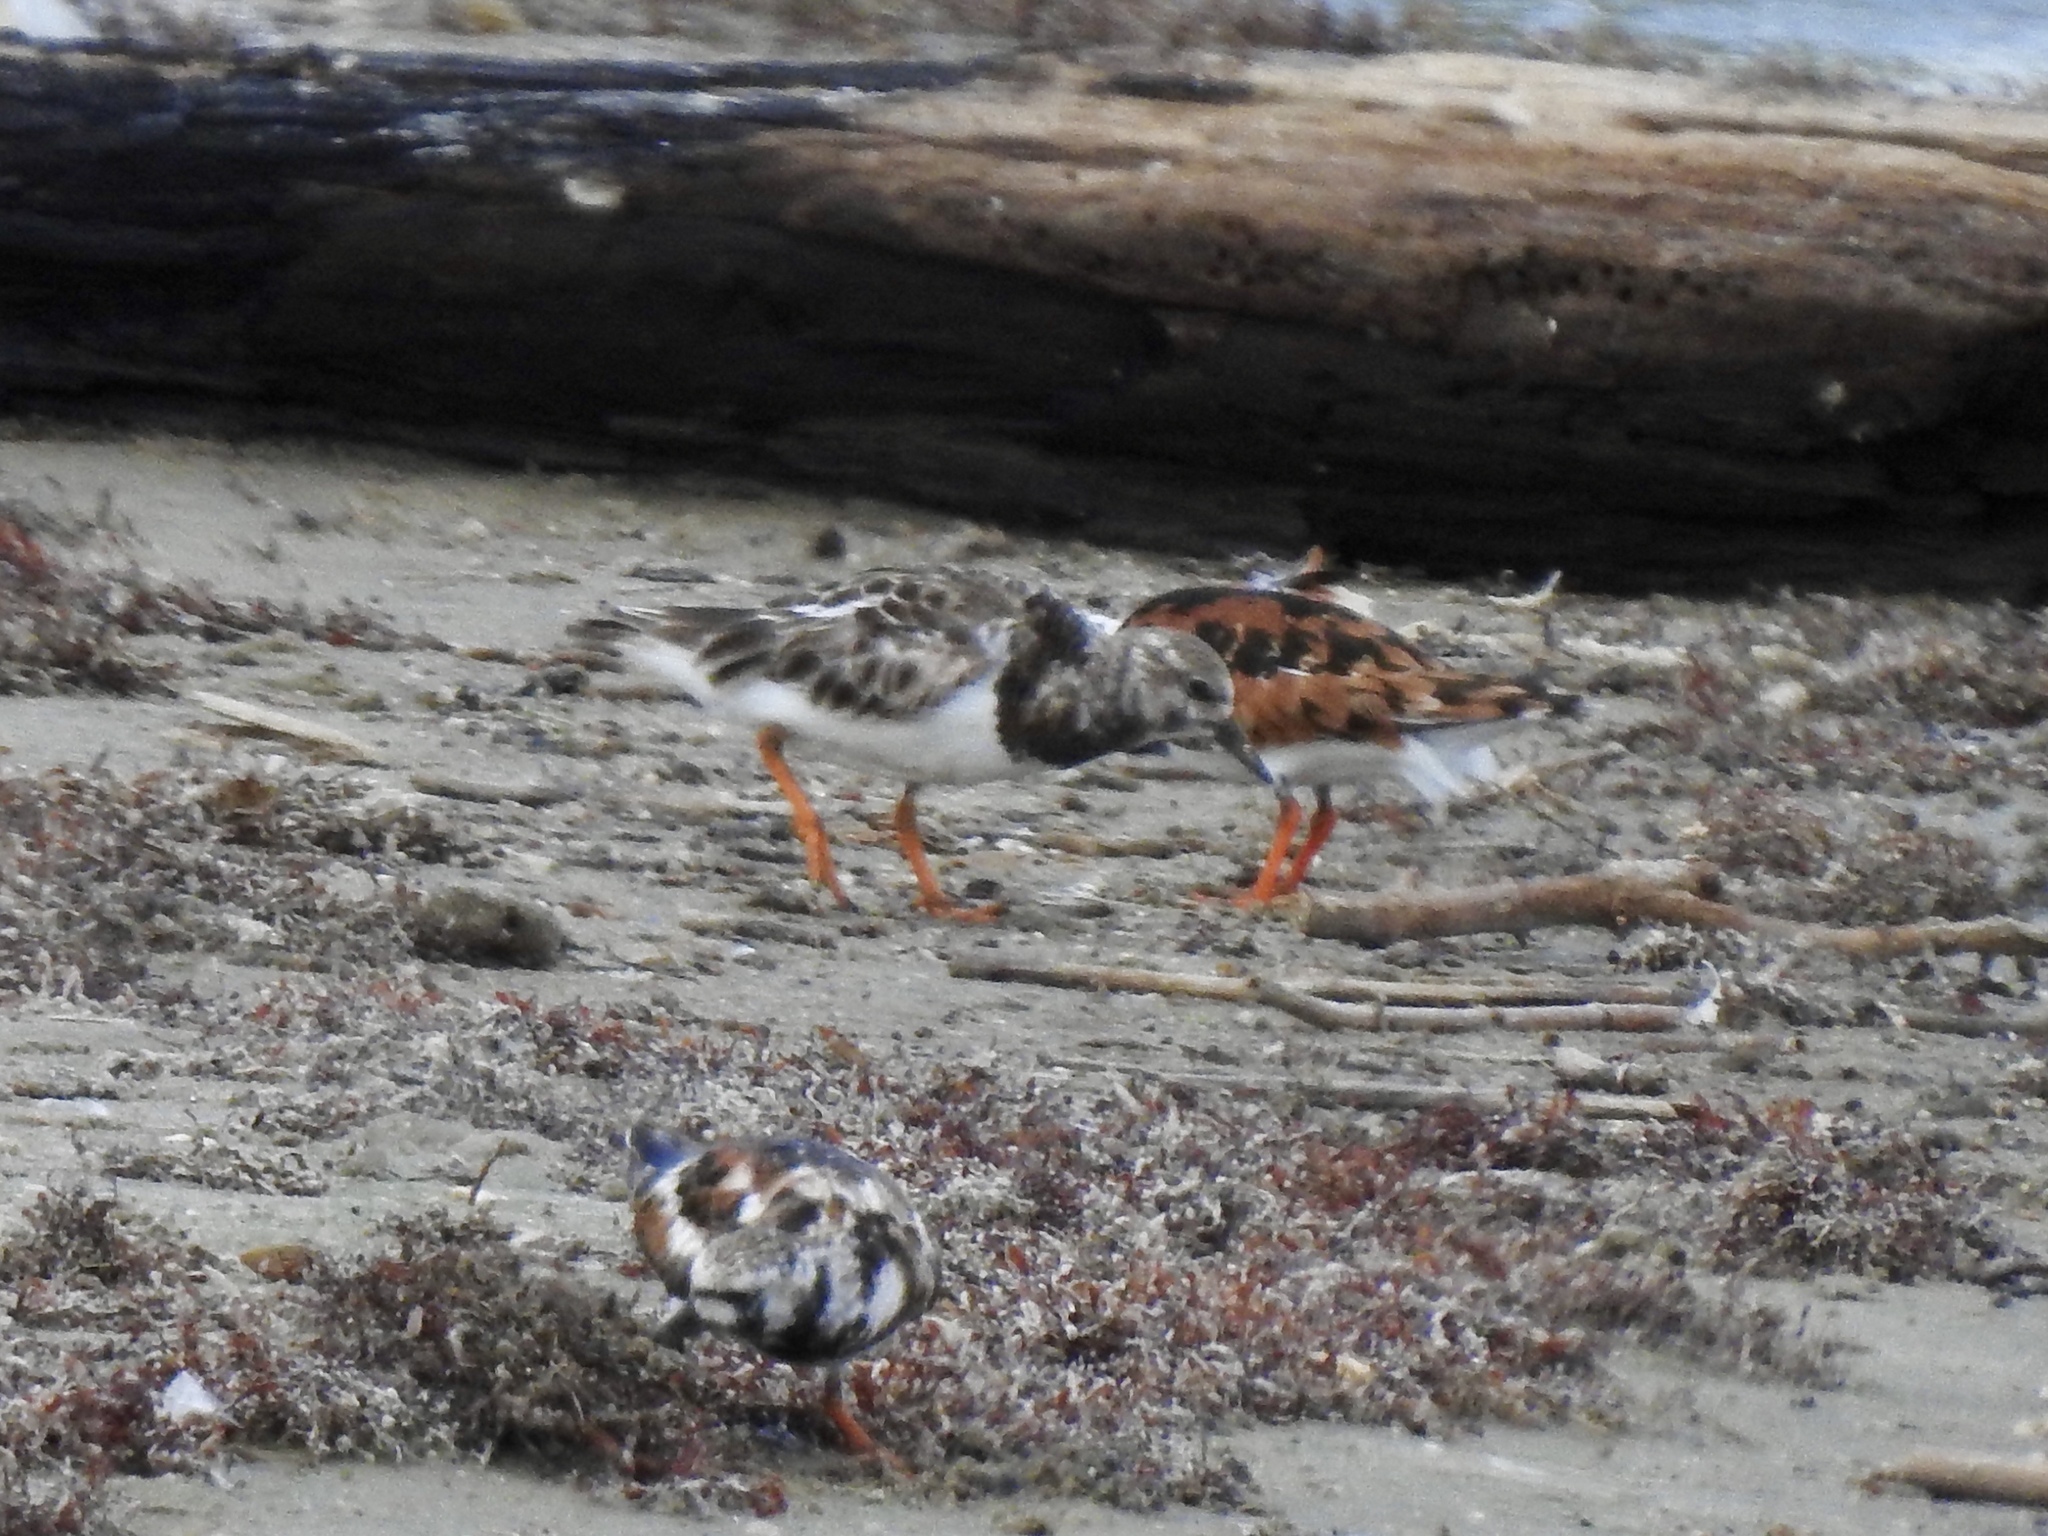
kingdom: Animalia
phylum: Chordata
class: Aves
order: Charadriiformes
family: Scolopacidae
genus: Arenaria
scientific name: Arenaria interpres
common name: Ruddy turnstone
